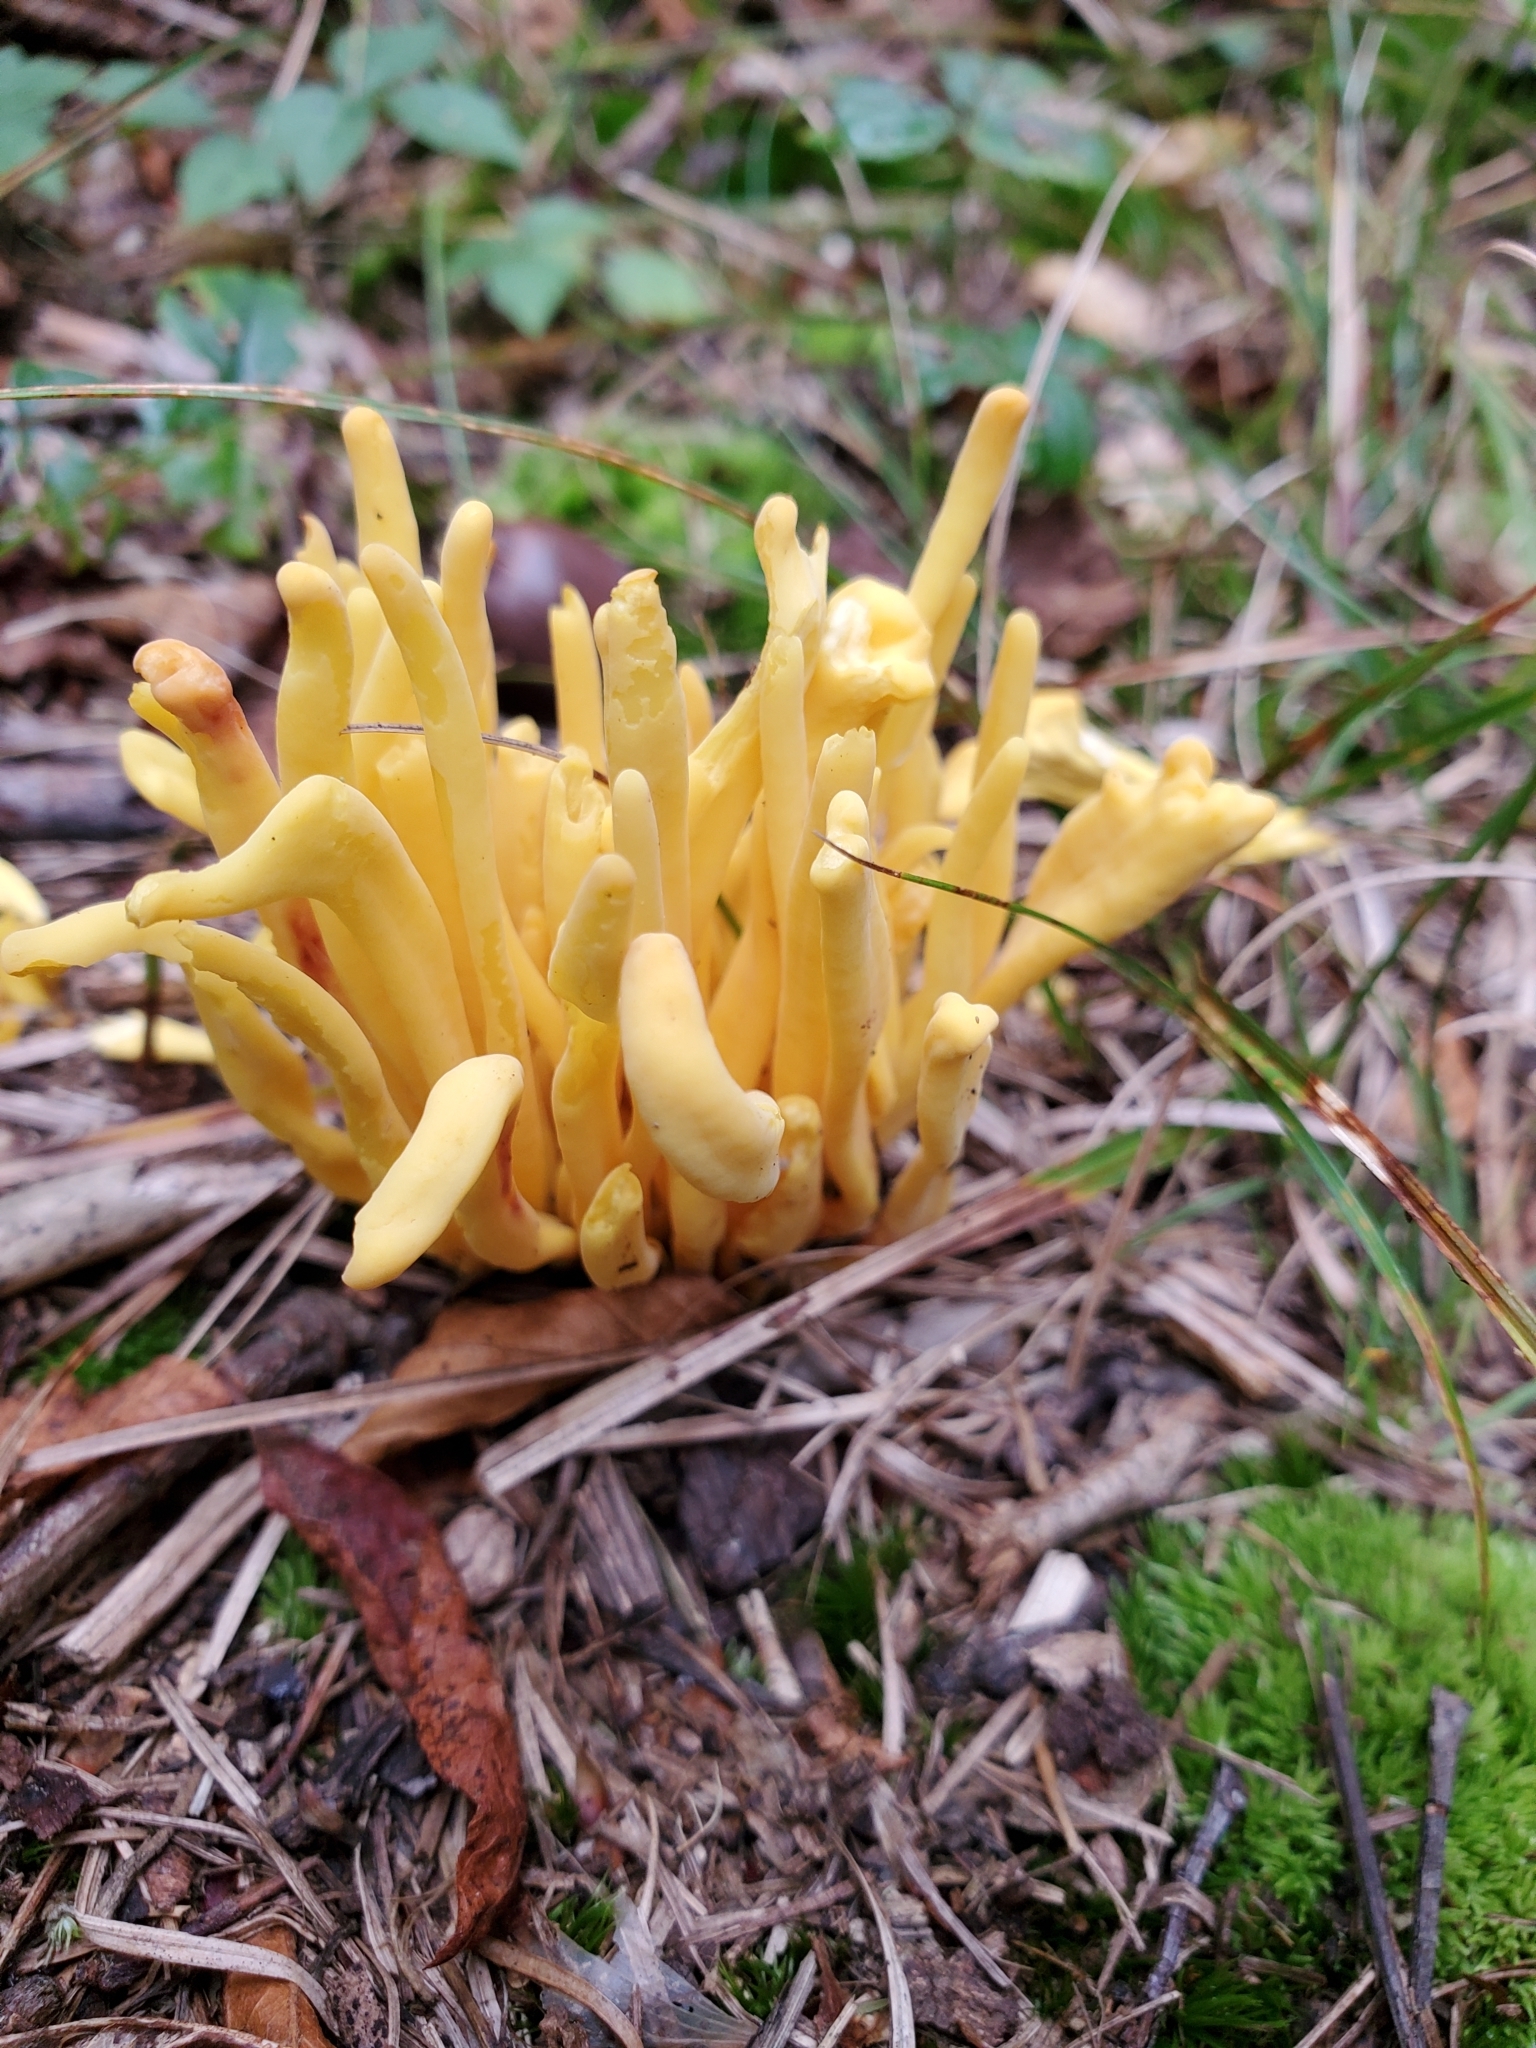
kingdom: Fungi
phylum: Basidiomycota
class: Agaricomycetes
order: Agaricales
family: Clavariaceae
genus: Clavulinopsis
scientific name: Clavulinopsis fusiformis
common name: Golden spindles
